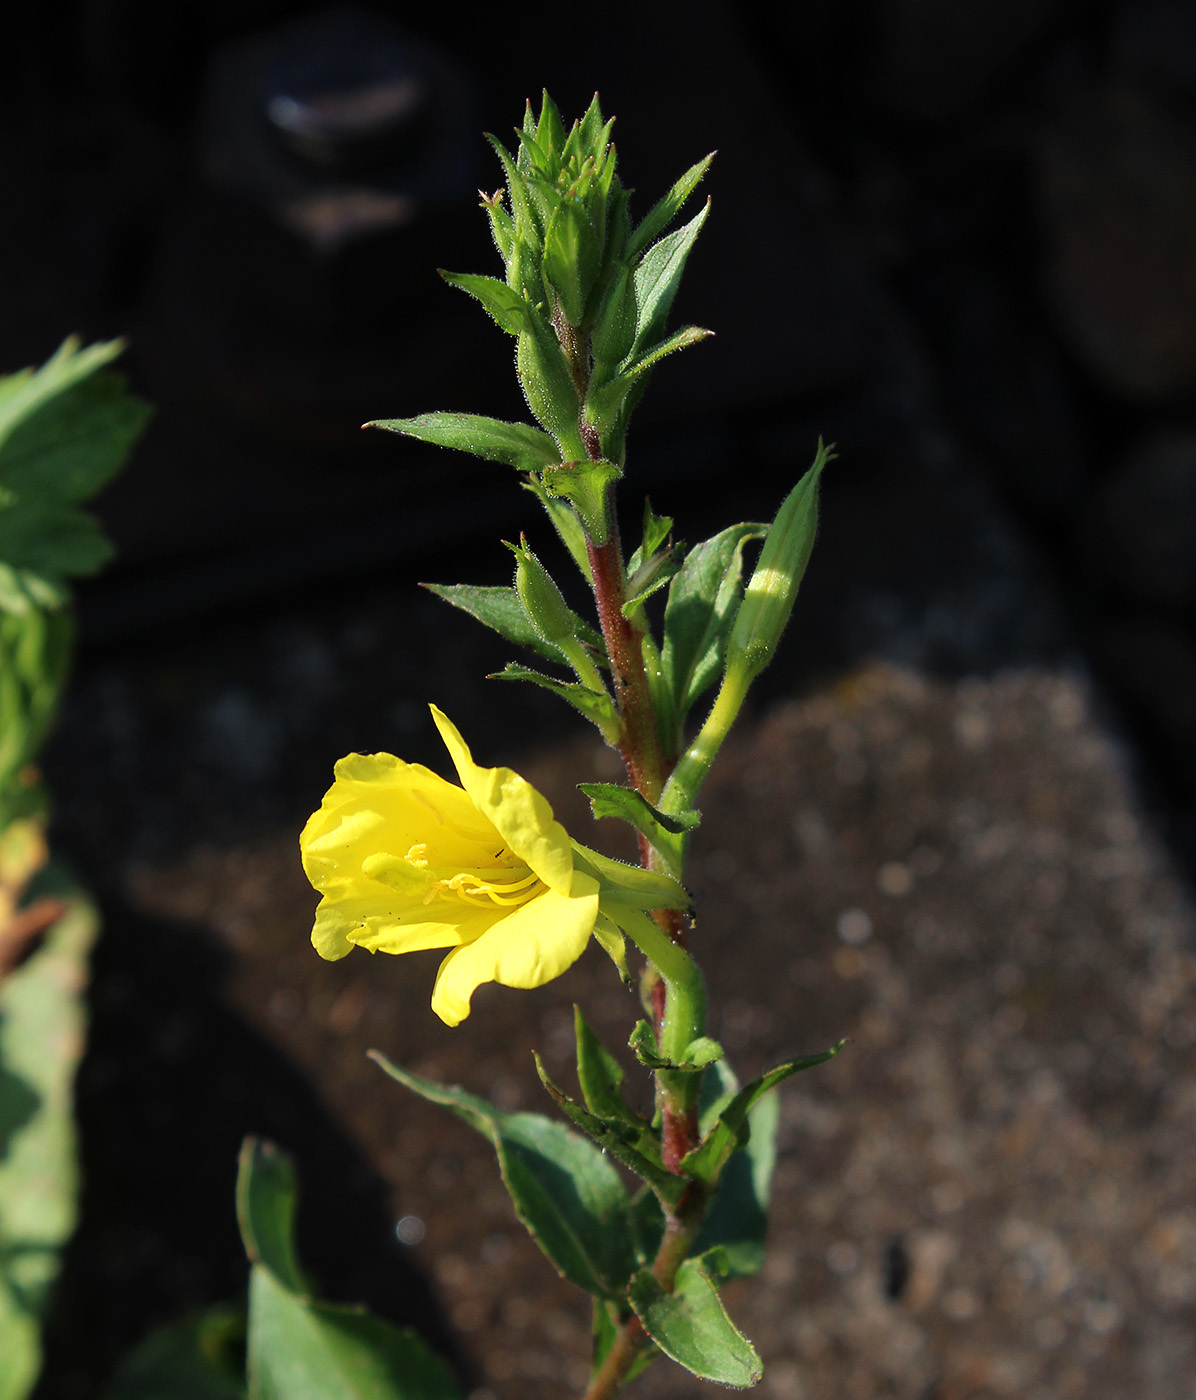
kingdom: Plantae
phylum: Tracheophyta
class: Magnoliopsida
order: Myrtales
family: Onagraceae
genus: Oenothera
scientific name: Oenothera rubricaulis
